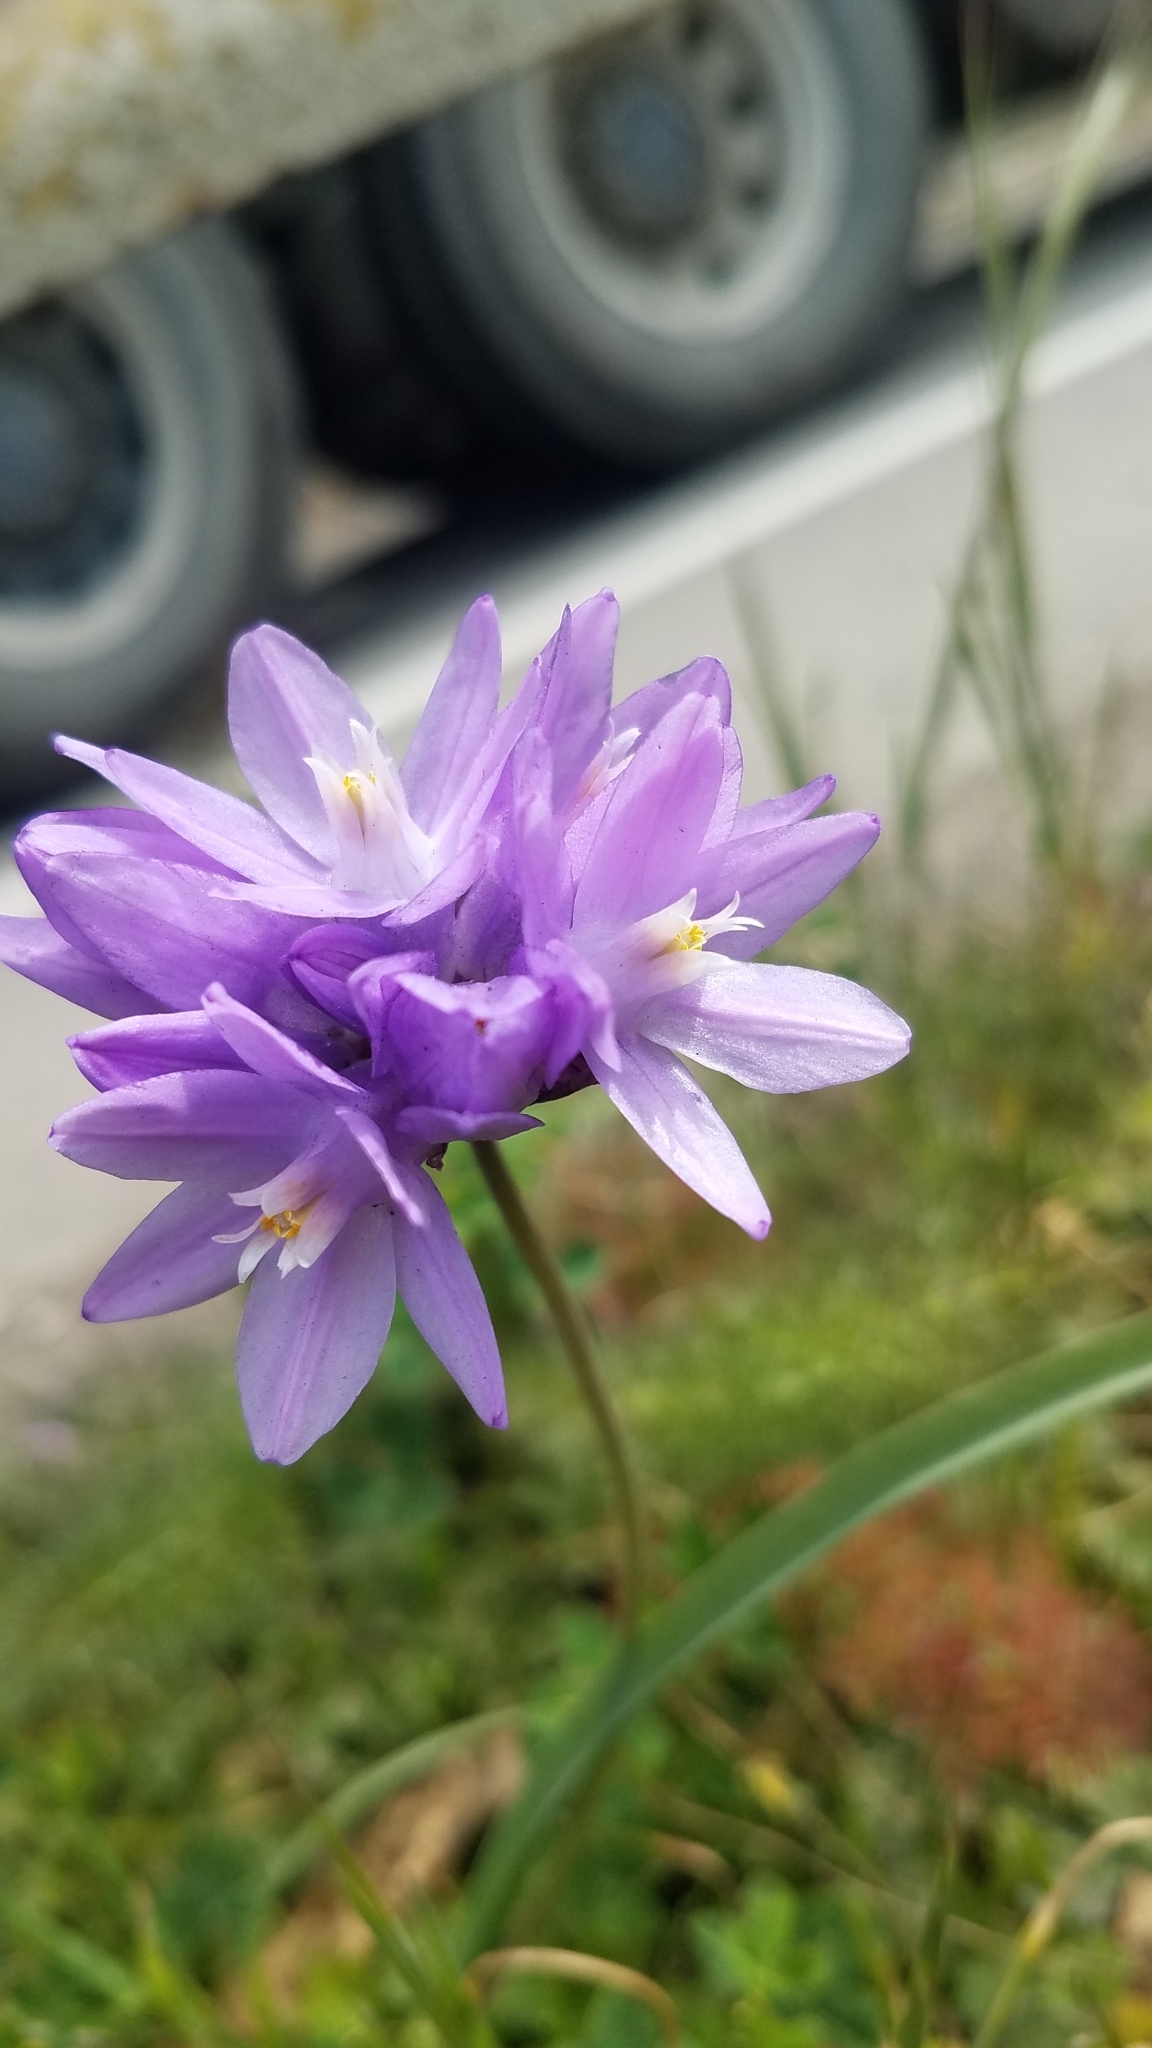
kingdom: Plantae
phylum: Tracheophyta
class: Liliopsida
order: Asparagales
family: Asparagaceae
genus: Dipterostemon
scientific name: Dipterostemon capitatus
